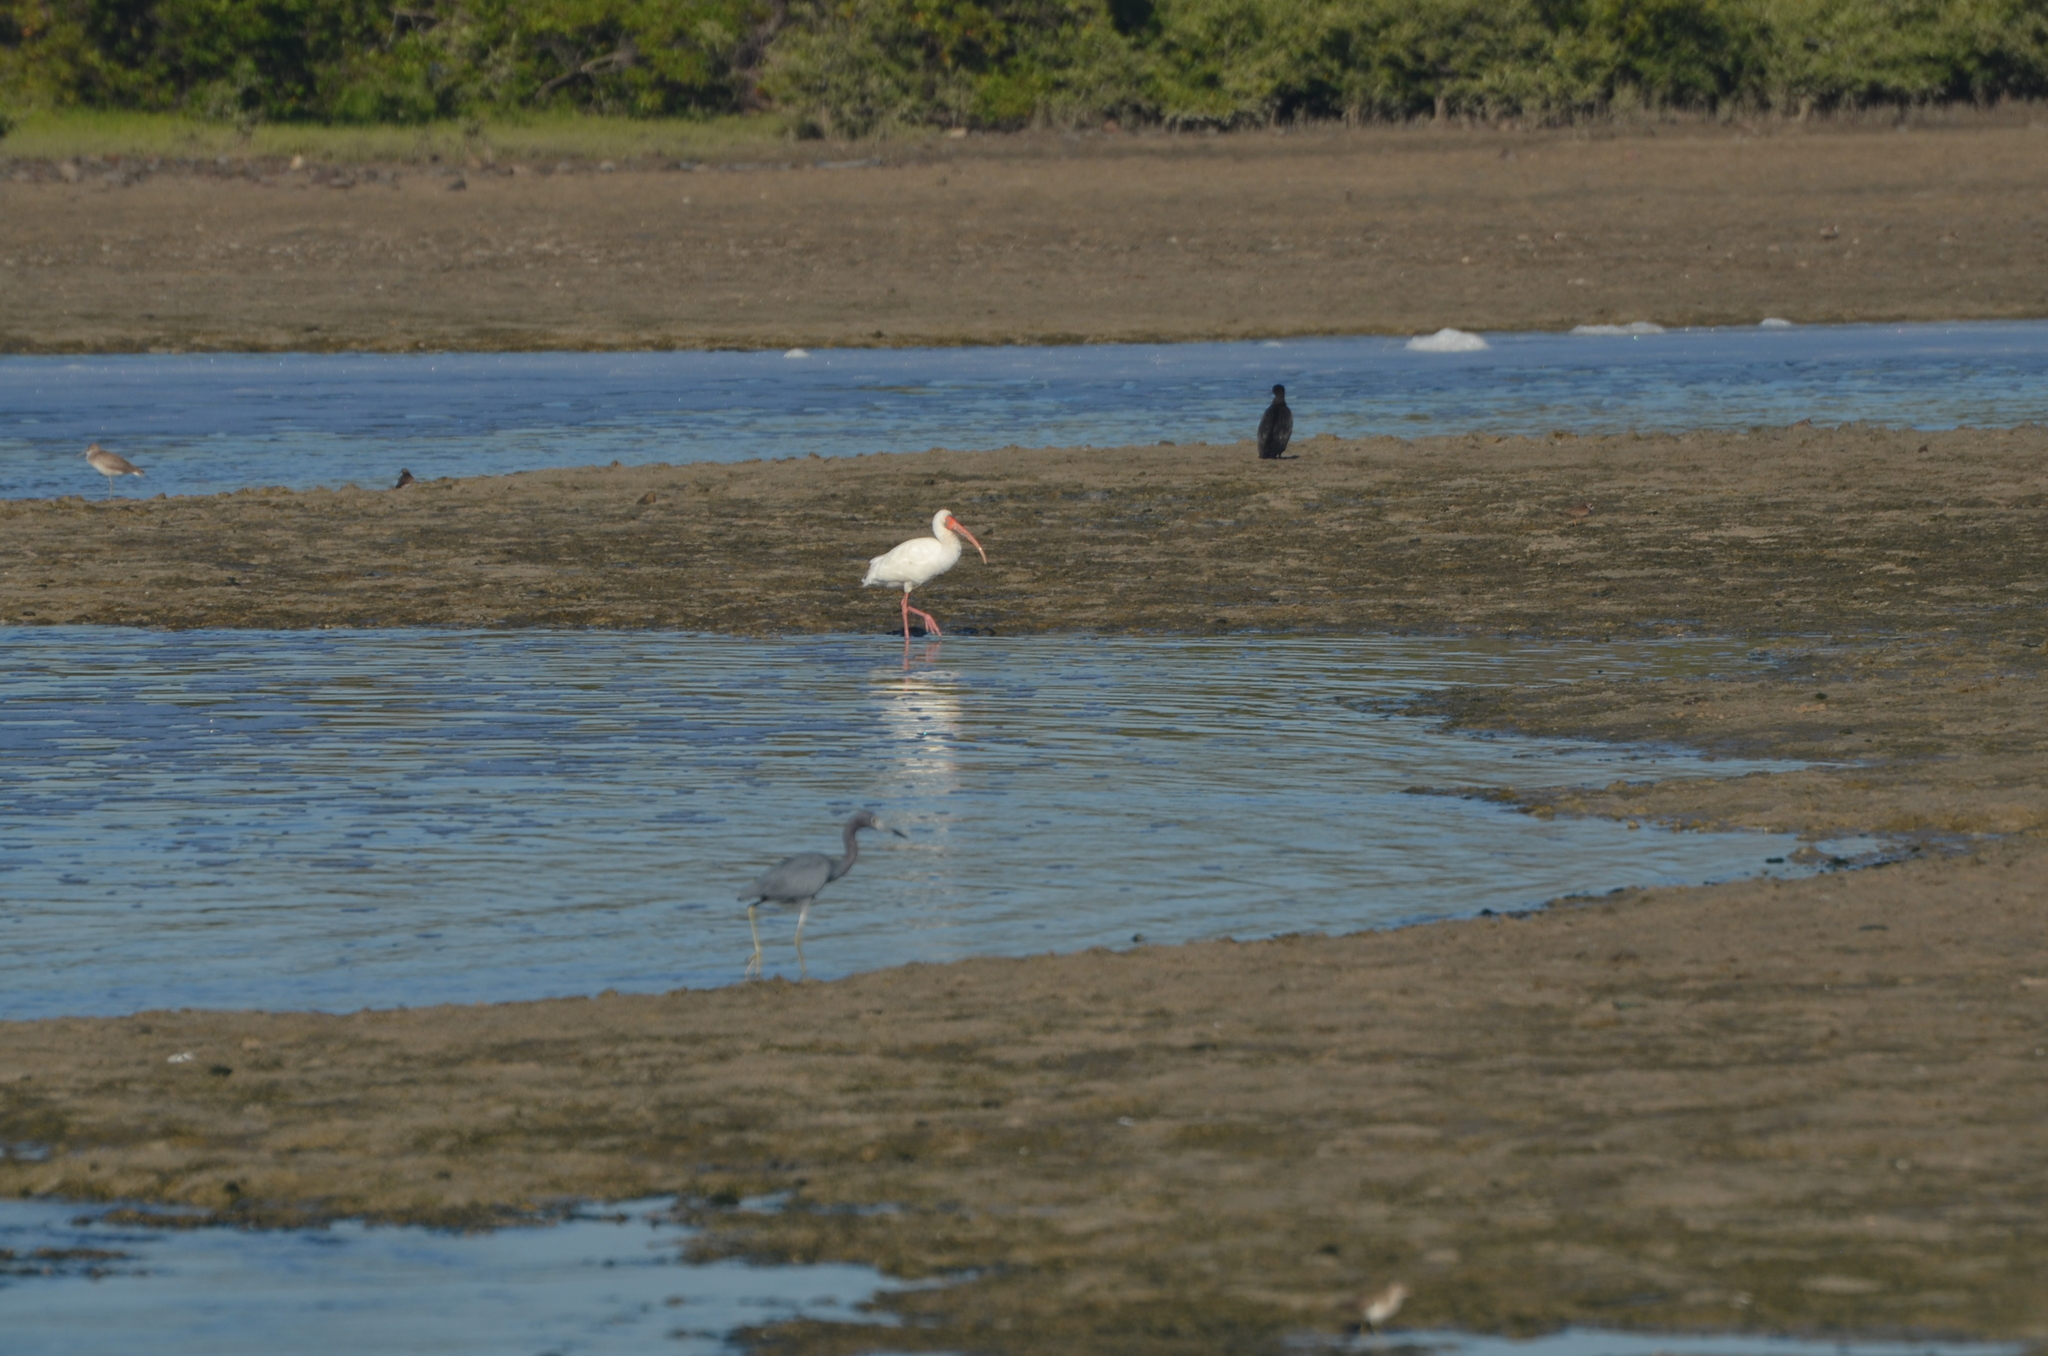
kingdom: Animalia
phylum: Chordata
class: Aves
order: Pelecaniformes
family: Threskiornithidae
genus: Eudocimus
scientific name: Eudocimus albus
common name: White ibis
